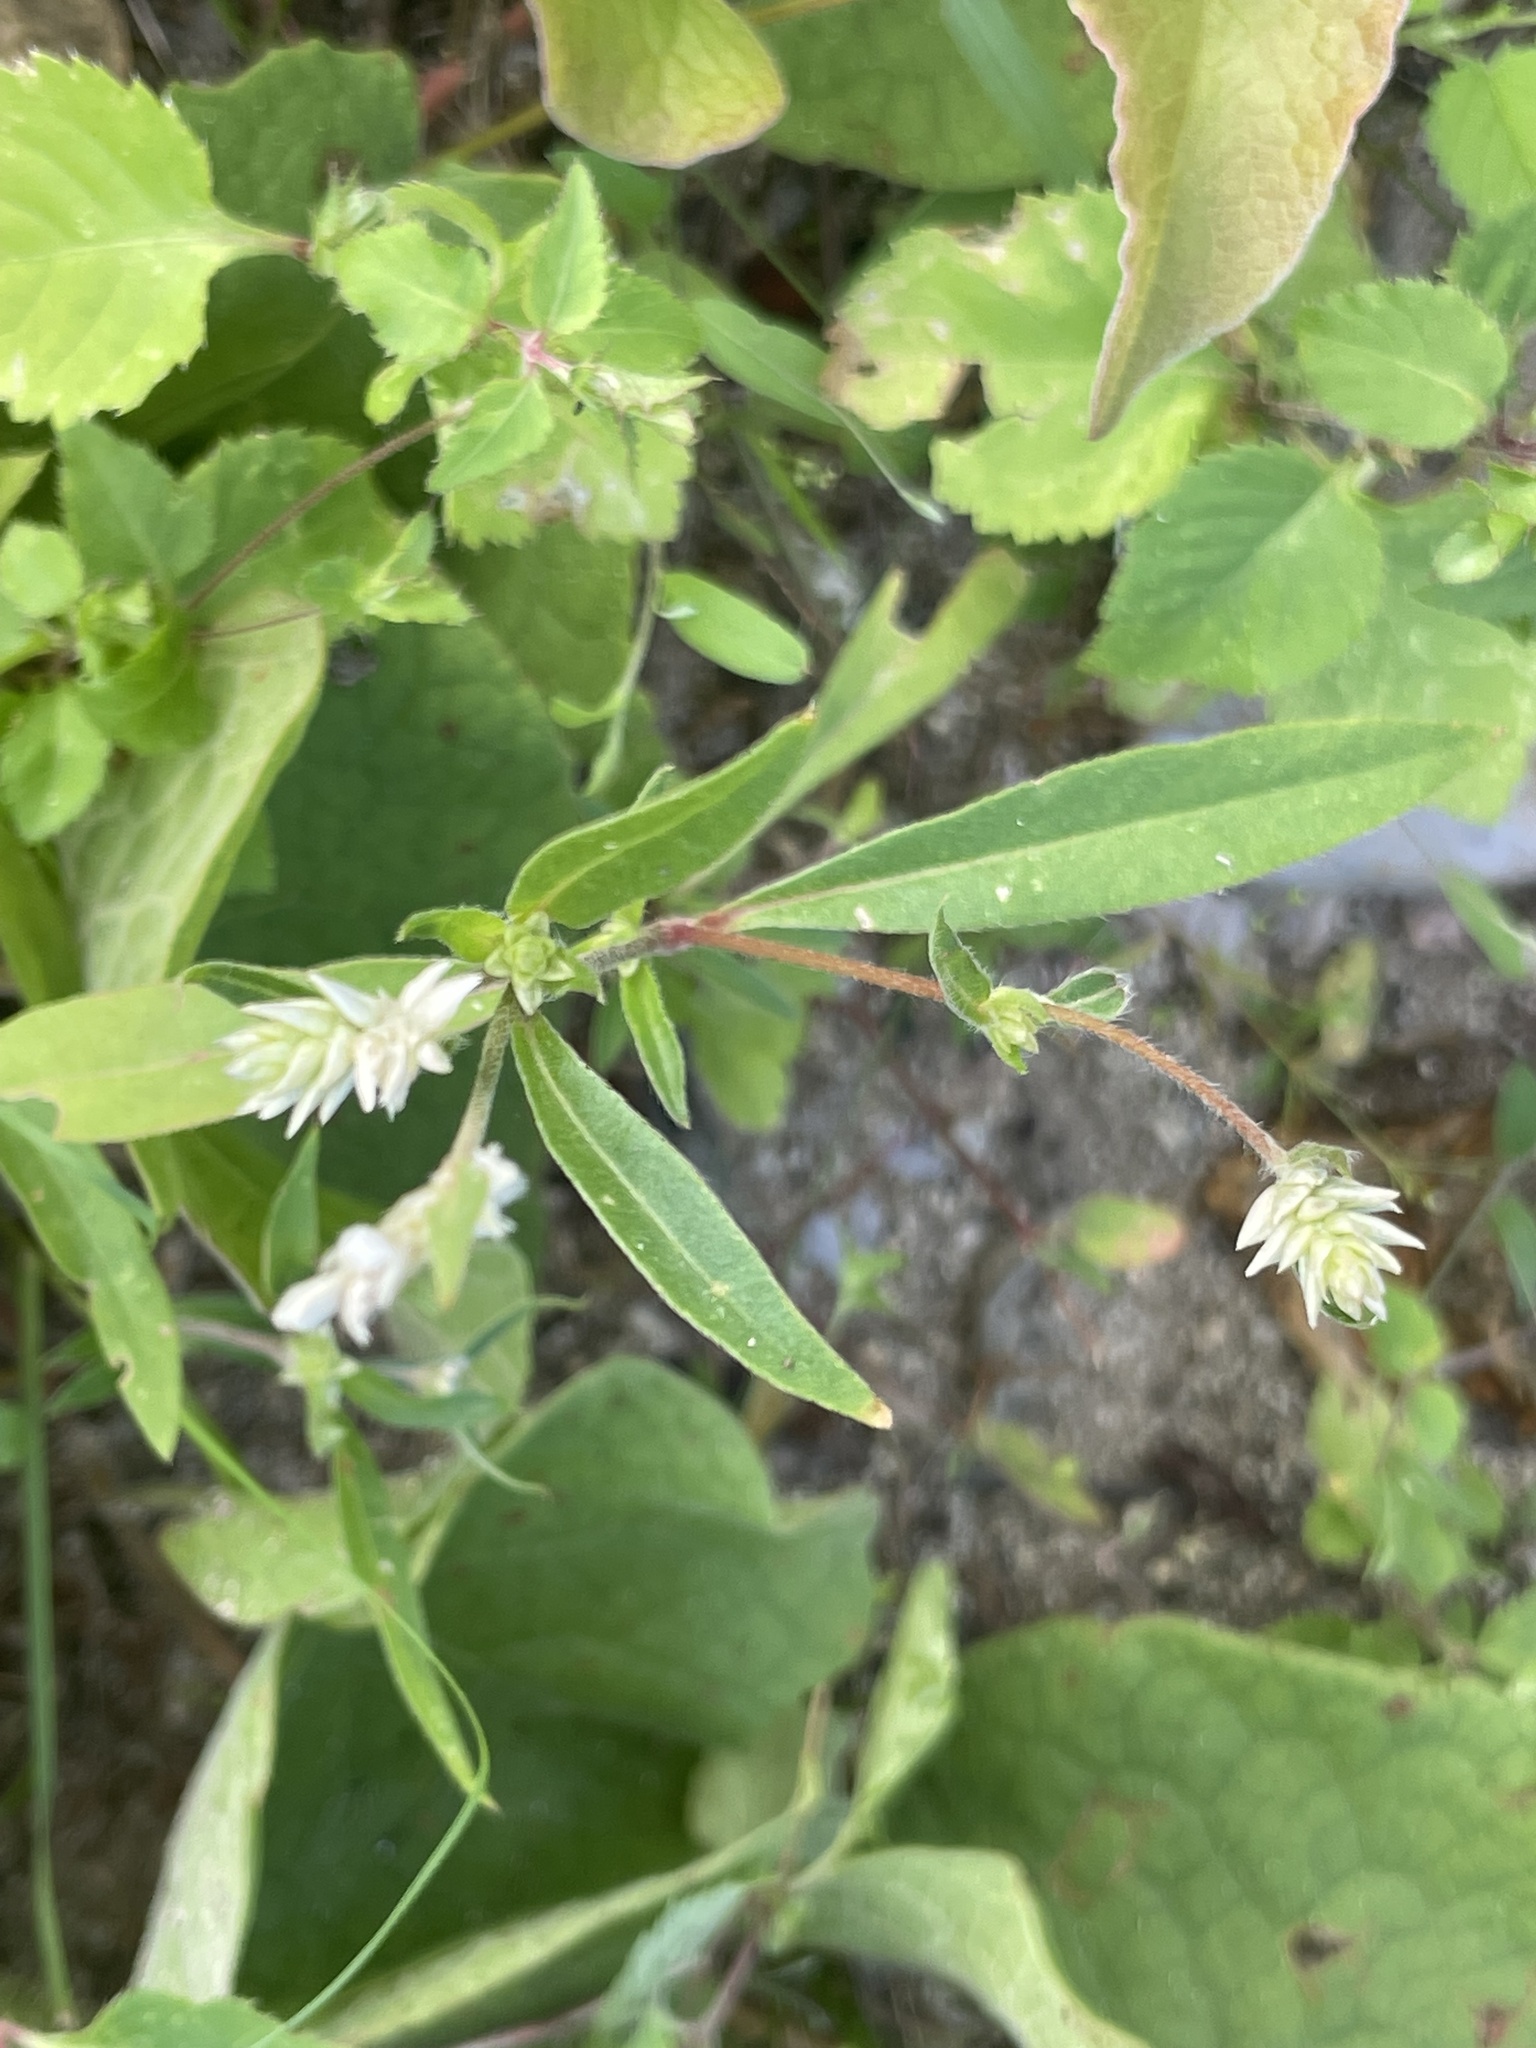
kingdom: Plantae
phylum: Tracheophyta
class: Magnoliopsida
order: Caryophyllales
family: Amaranthaceae
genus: Gomphrena
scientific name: Gomphrena sonorae
